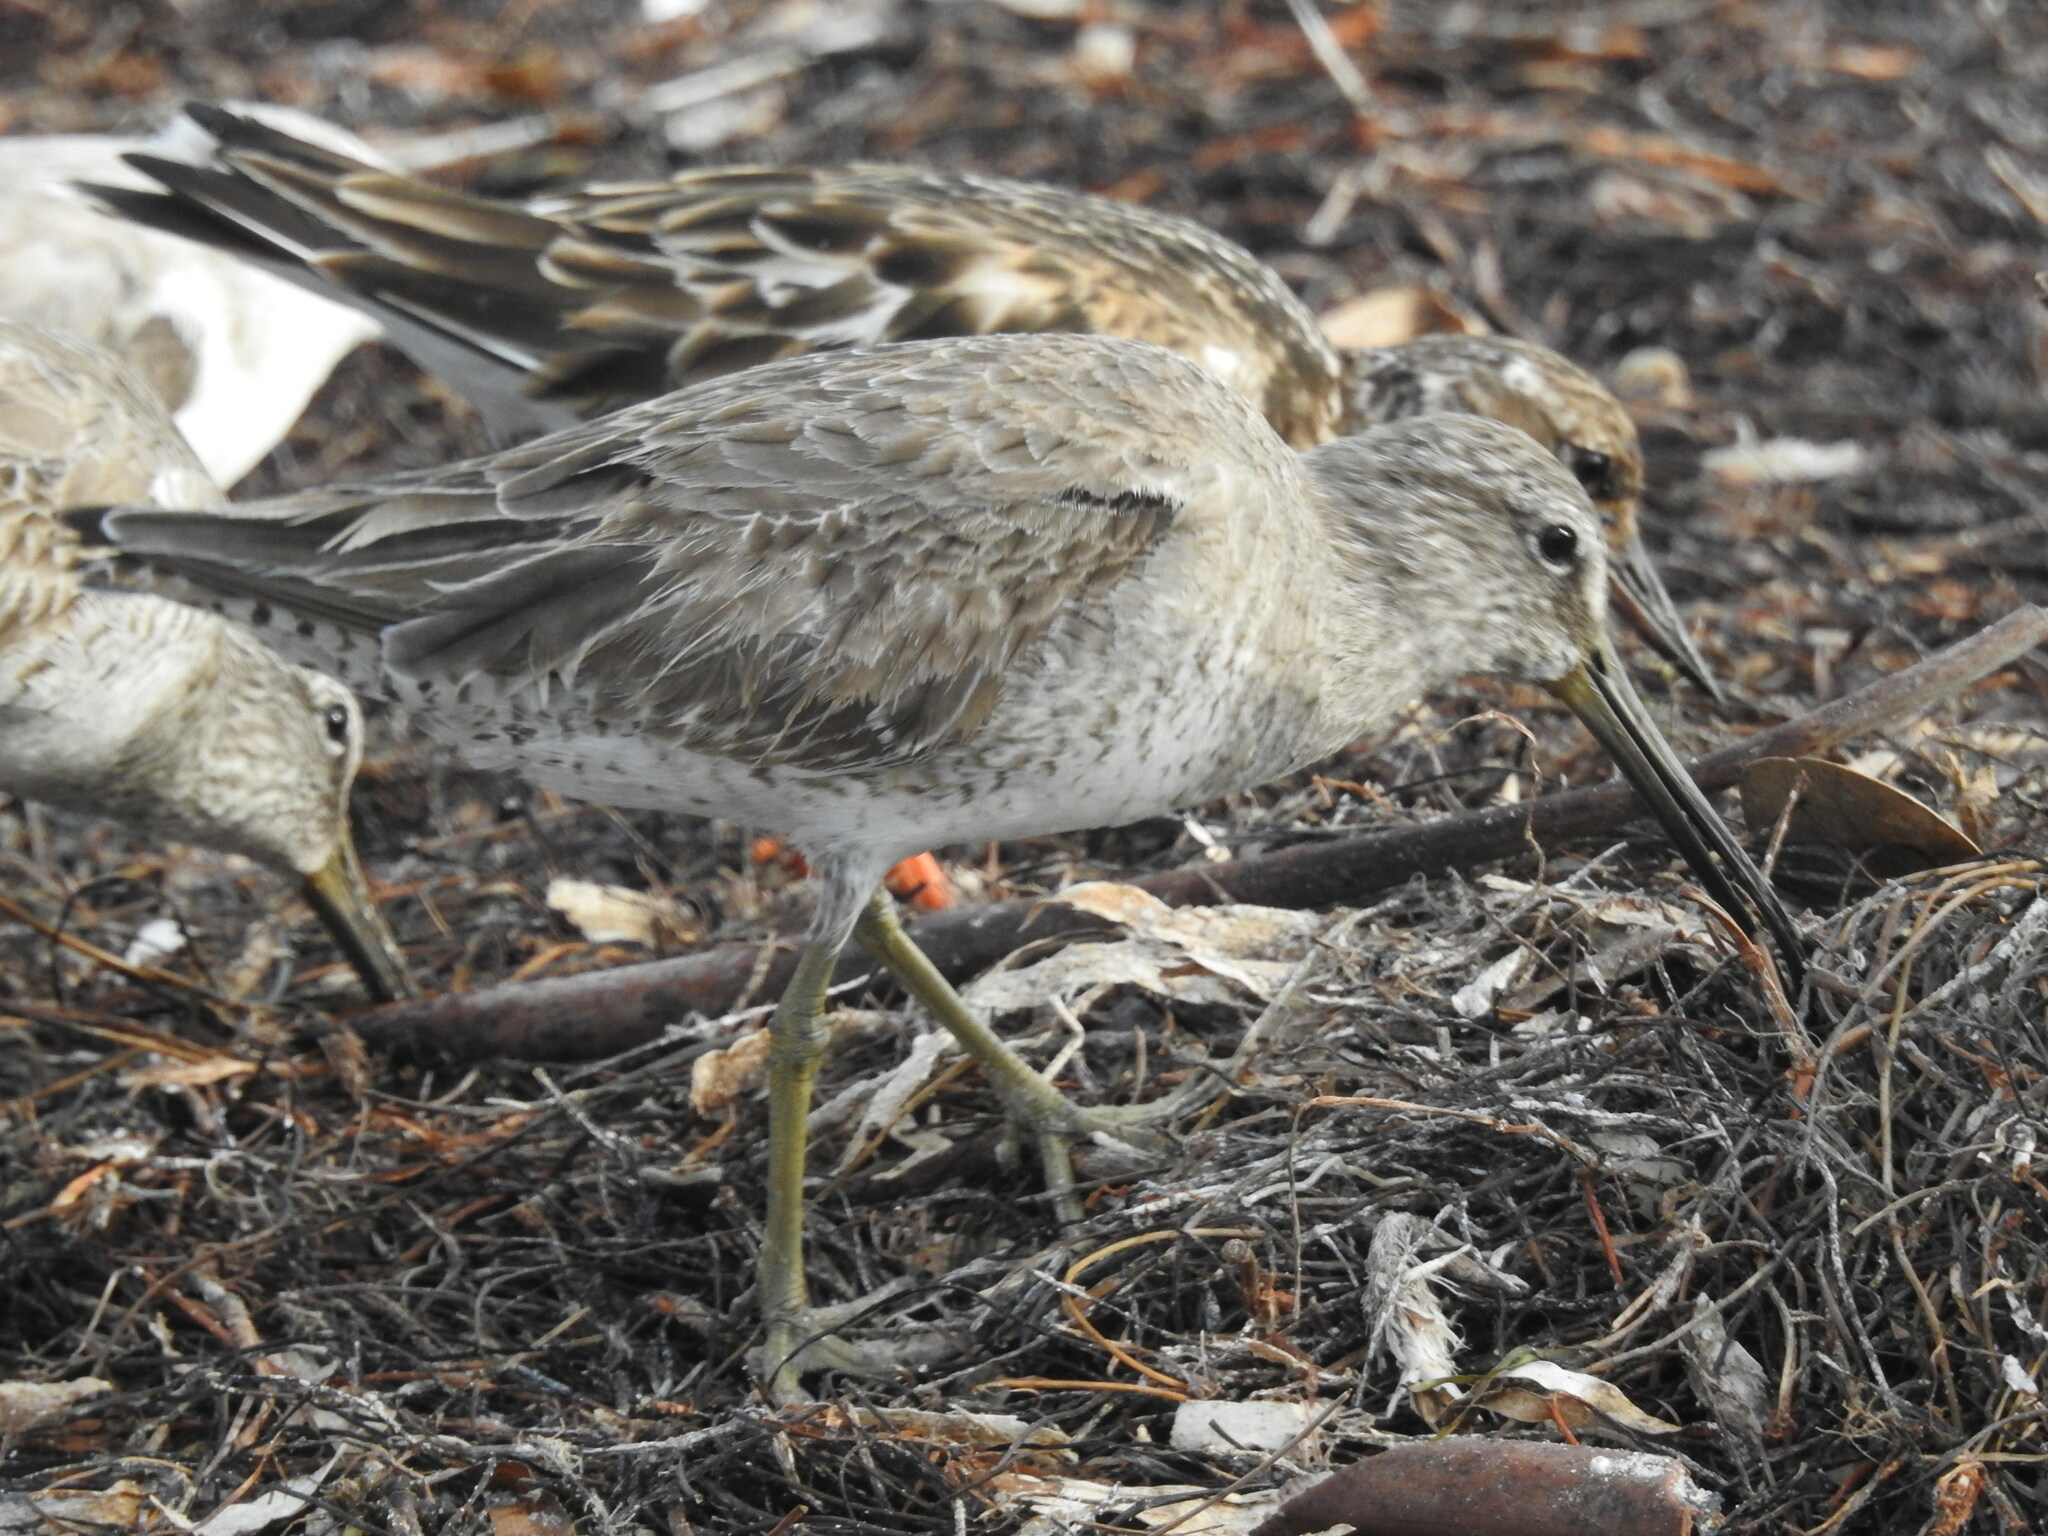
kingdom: Animalia
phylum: Chordata
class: Aves
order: Charadriiformes
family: Scolopacidae
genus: Limnodromus
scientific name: Limnodromus griseus
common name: Short-billed dowitcher
